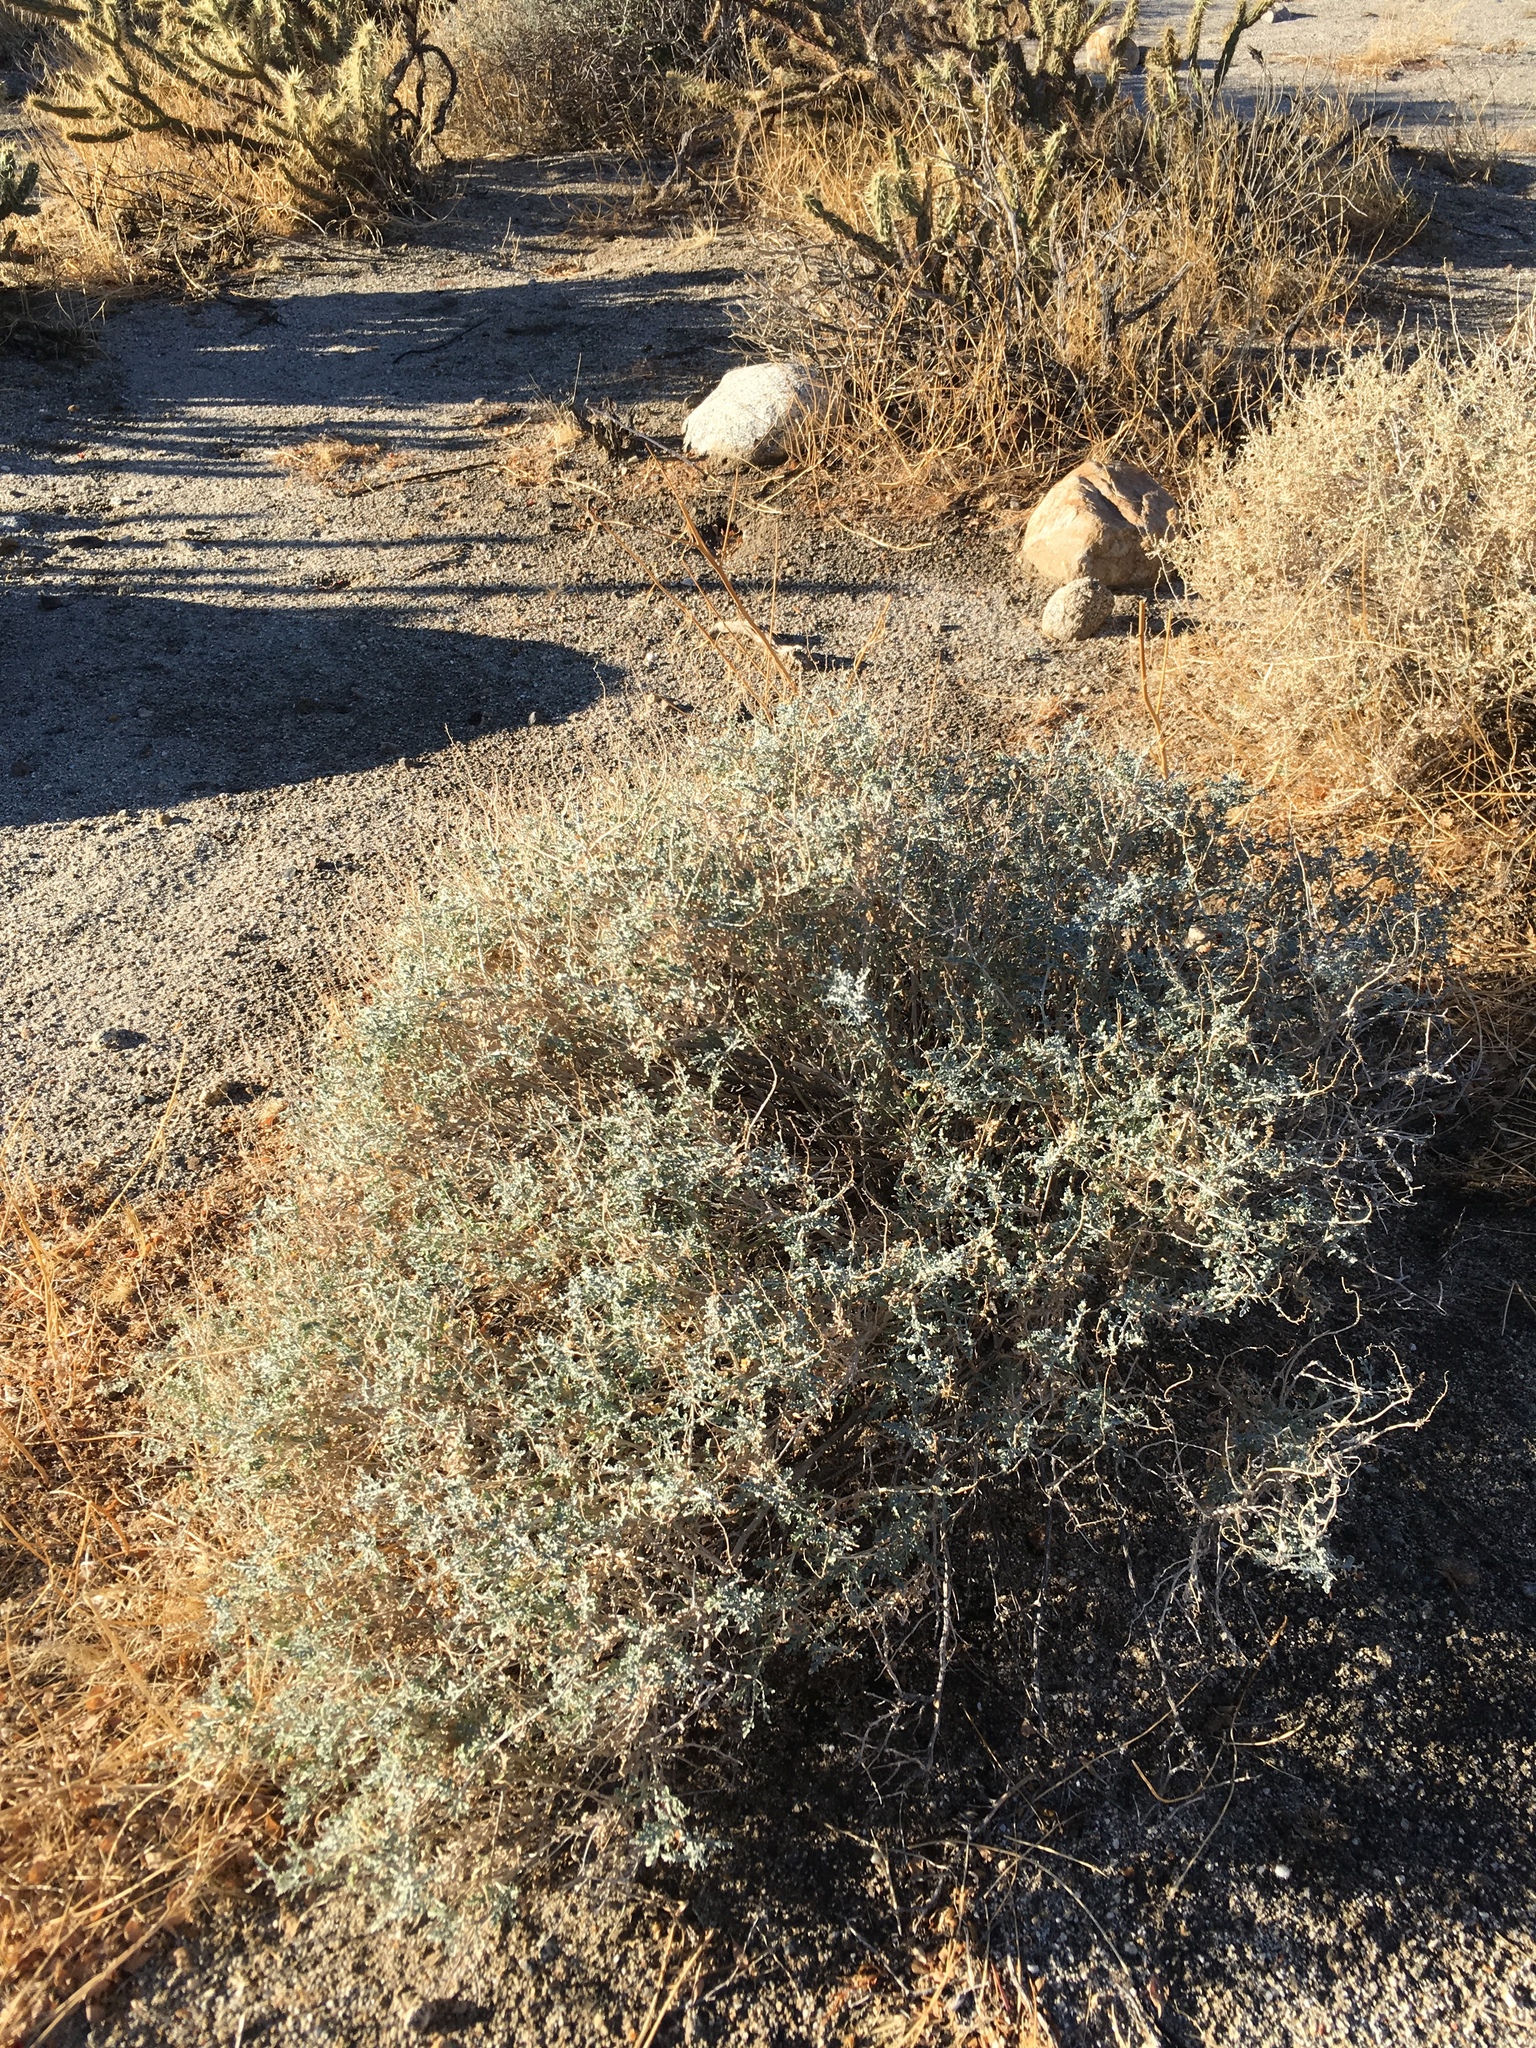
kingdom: Plantae
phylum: Tracheophyta
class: Magnoliopsida
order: Asterales
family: Asteraceae
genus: Ambrosia
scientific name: Ambrosia dumosa
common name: Bur-sage
